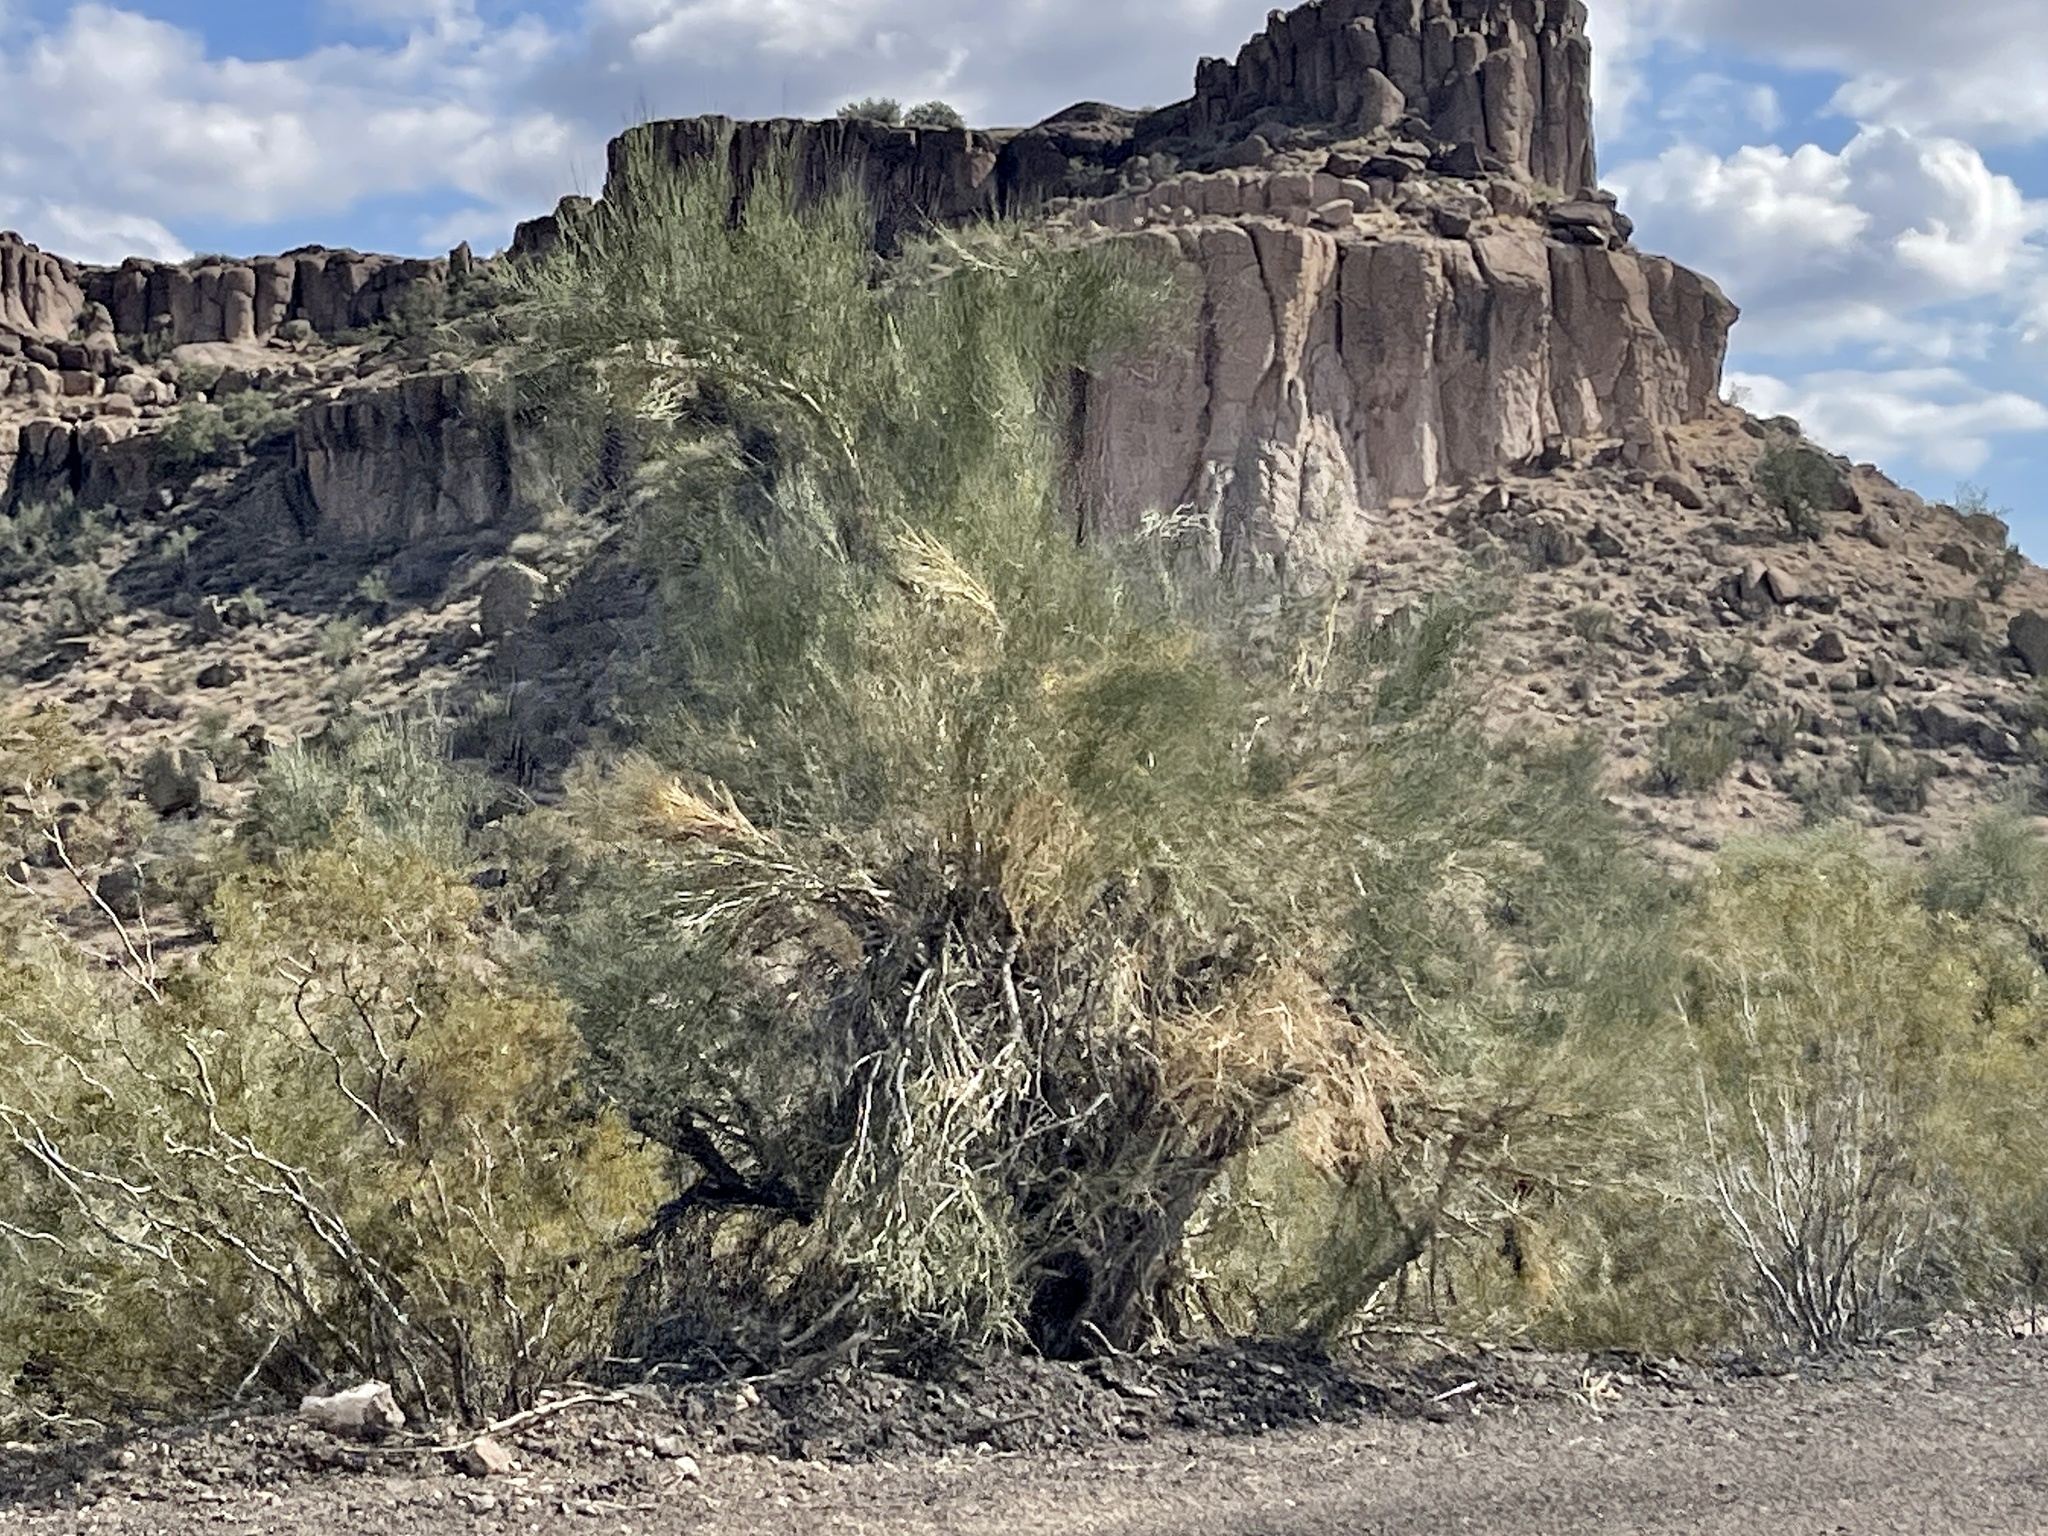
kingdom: Plantae
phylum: Tracheophyta
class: Magnoliopsida
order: Celastrales
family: Celastraceae
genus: Canotia
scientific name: Canotia holacantha
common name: Crucifixion thorns
